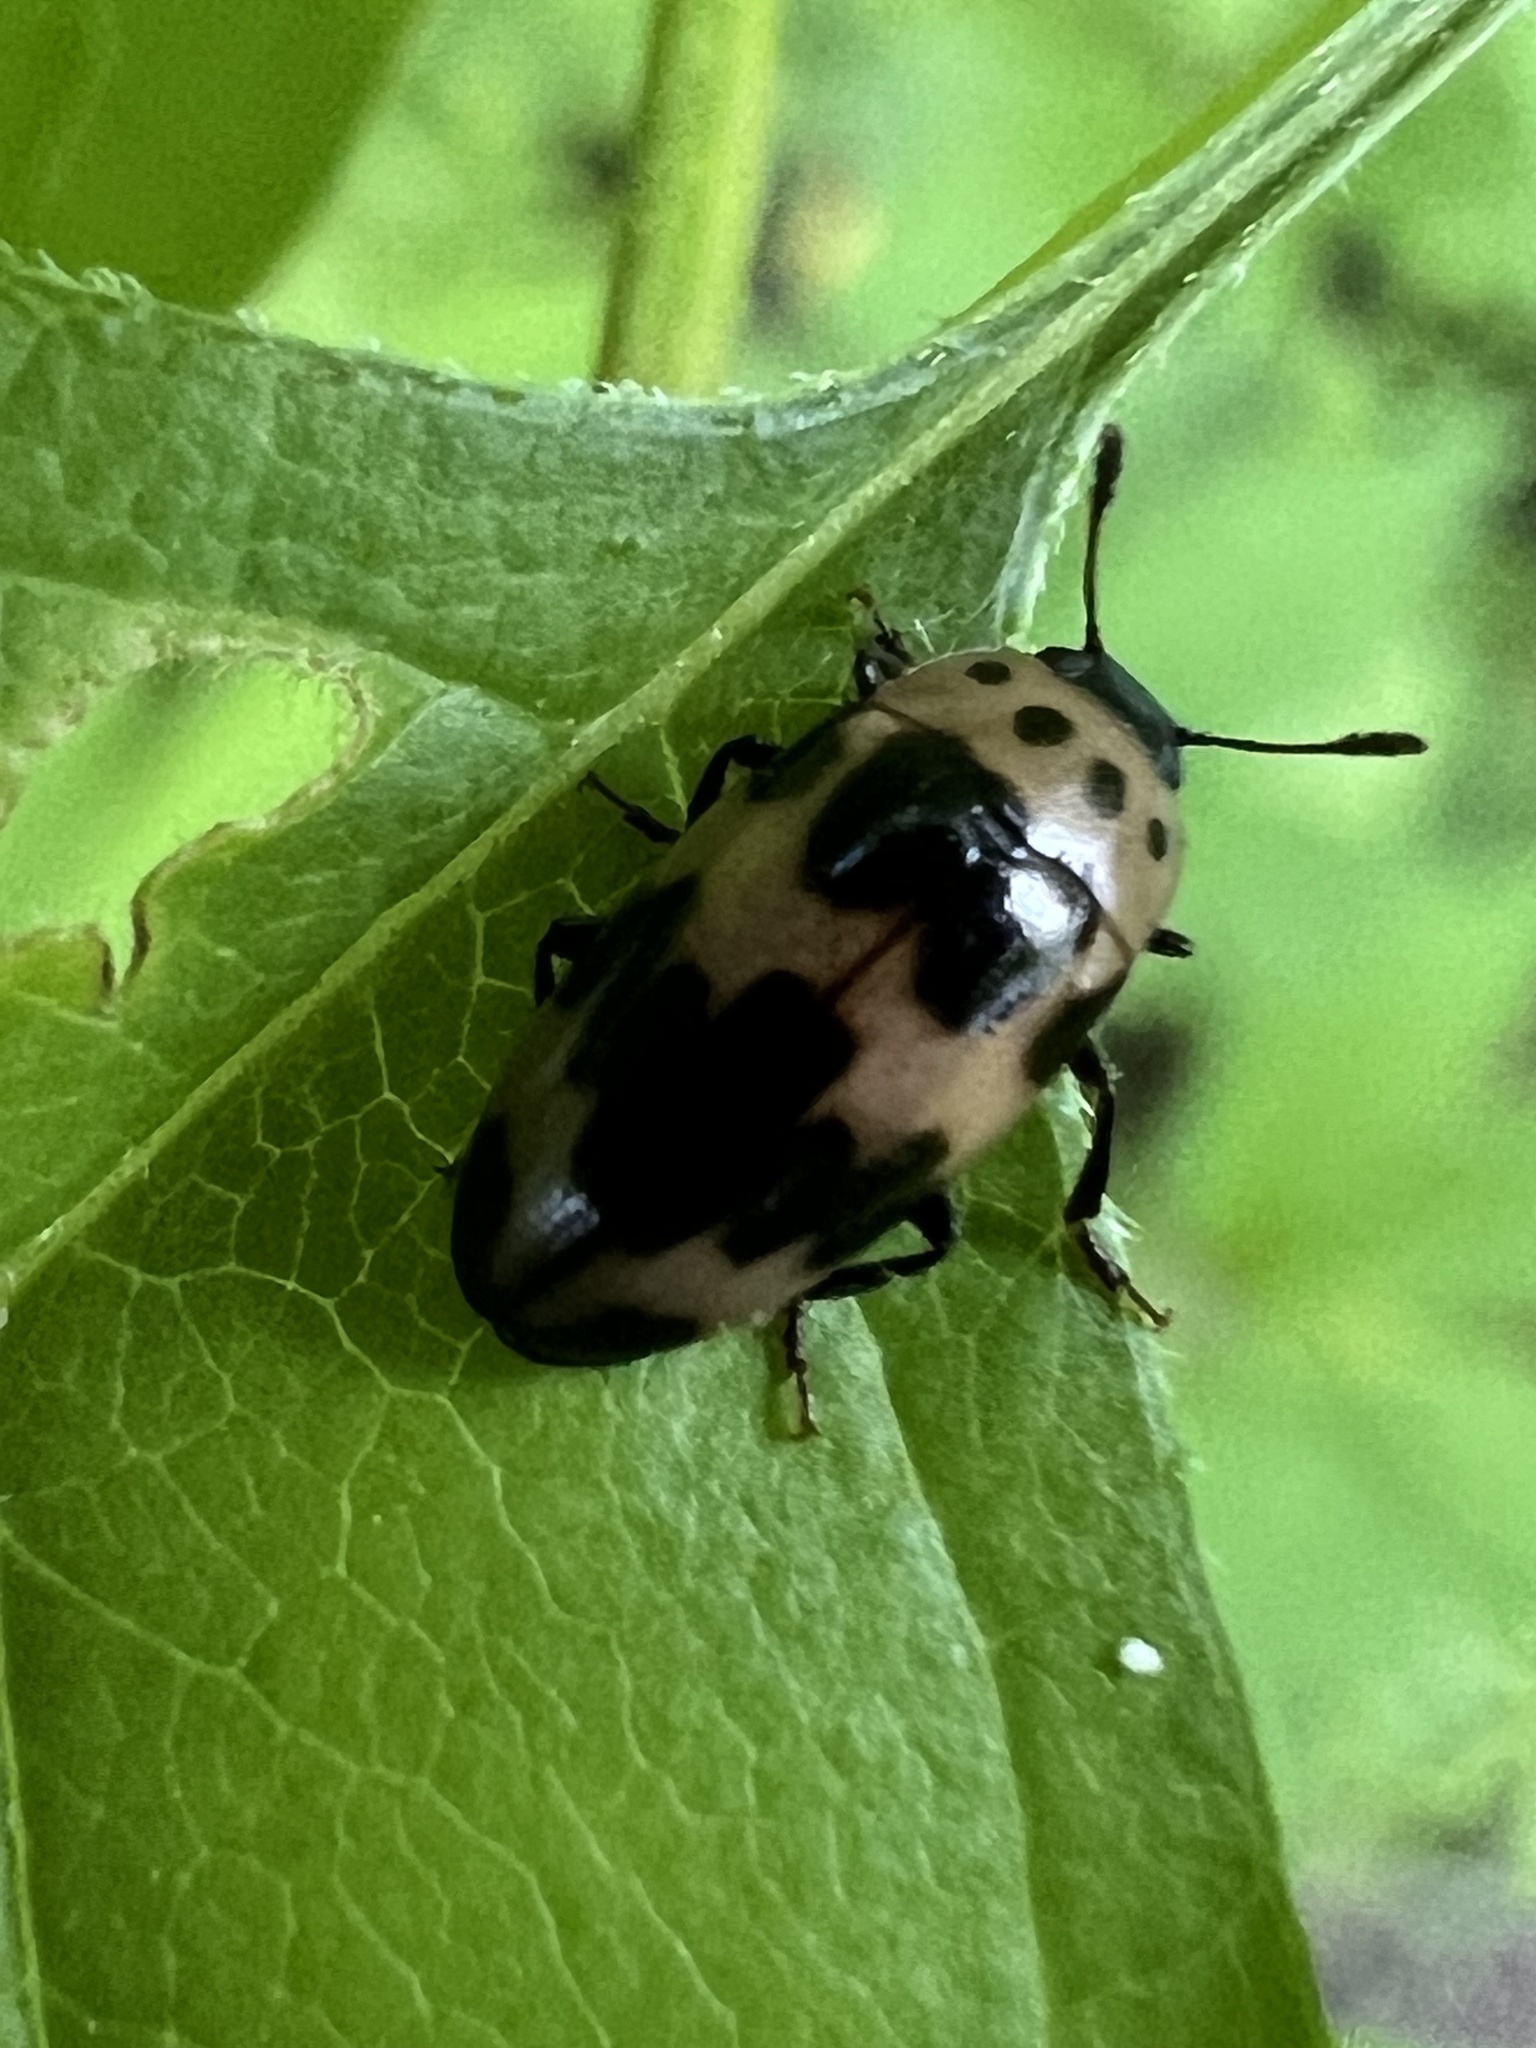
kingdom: Animalia
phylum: Arthropoda
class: Insecta
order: Coleoptera
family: Erotylidae
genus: Ischyrus
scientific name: Ischyrus quadripunctatus
